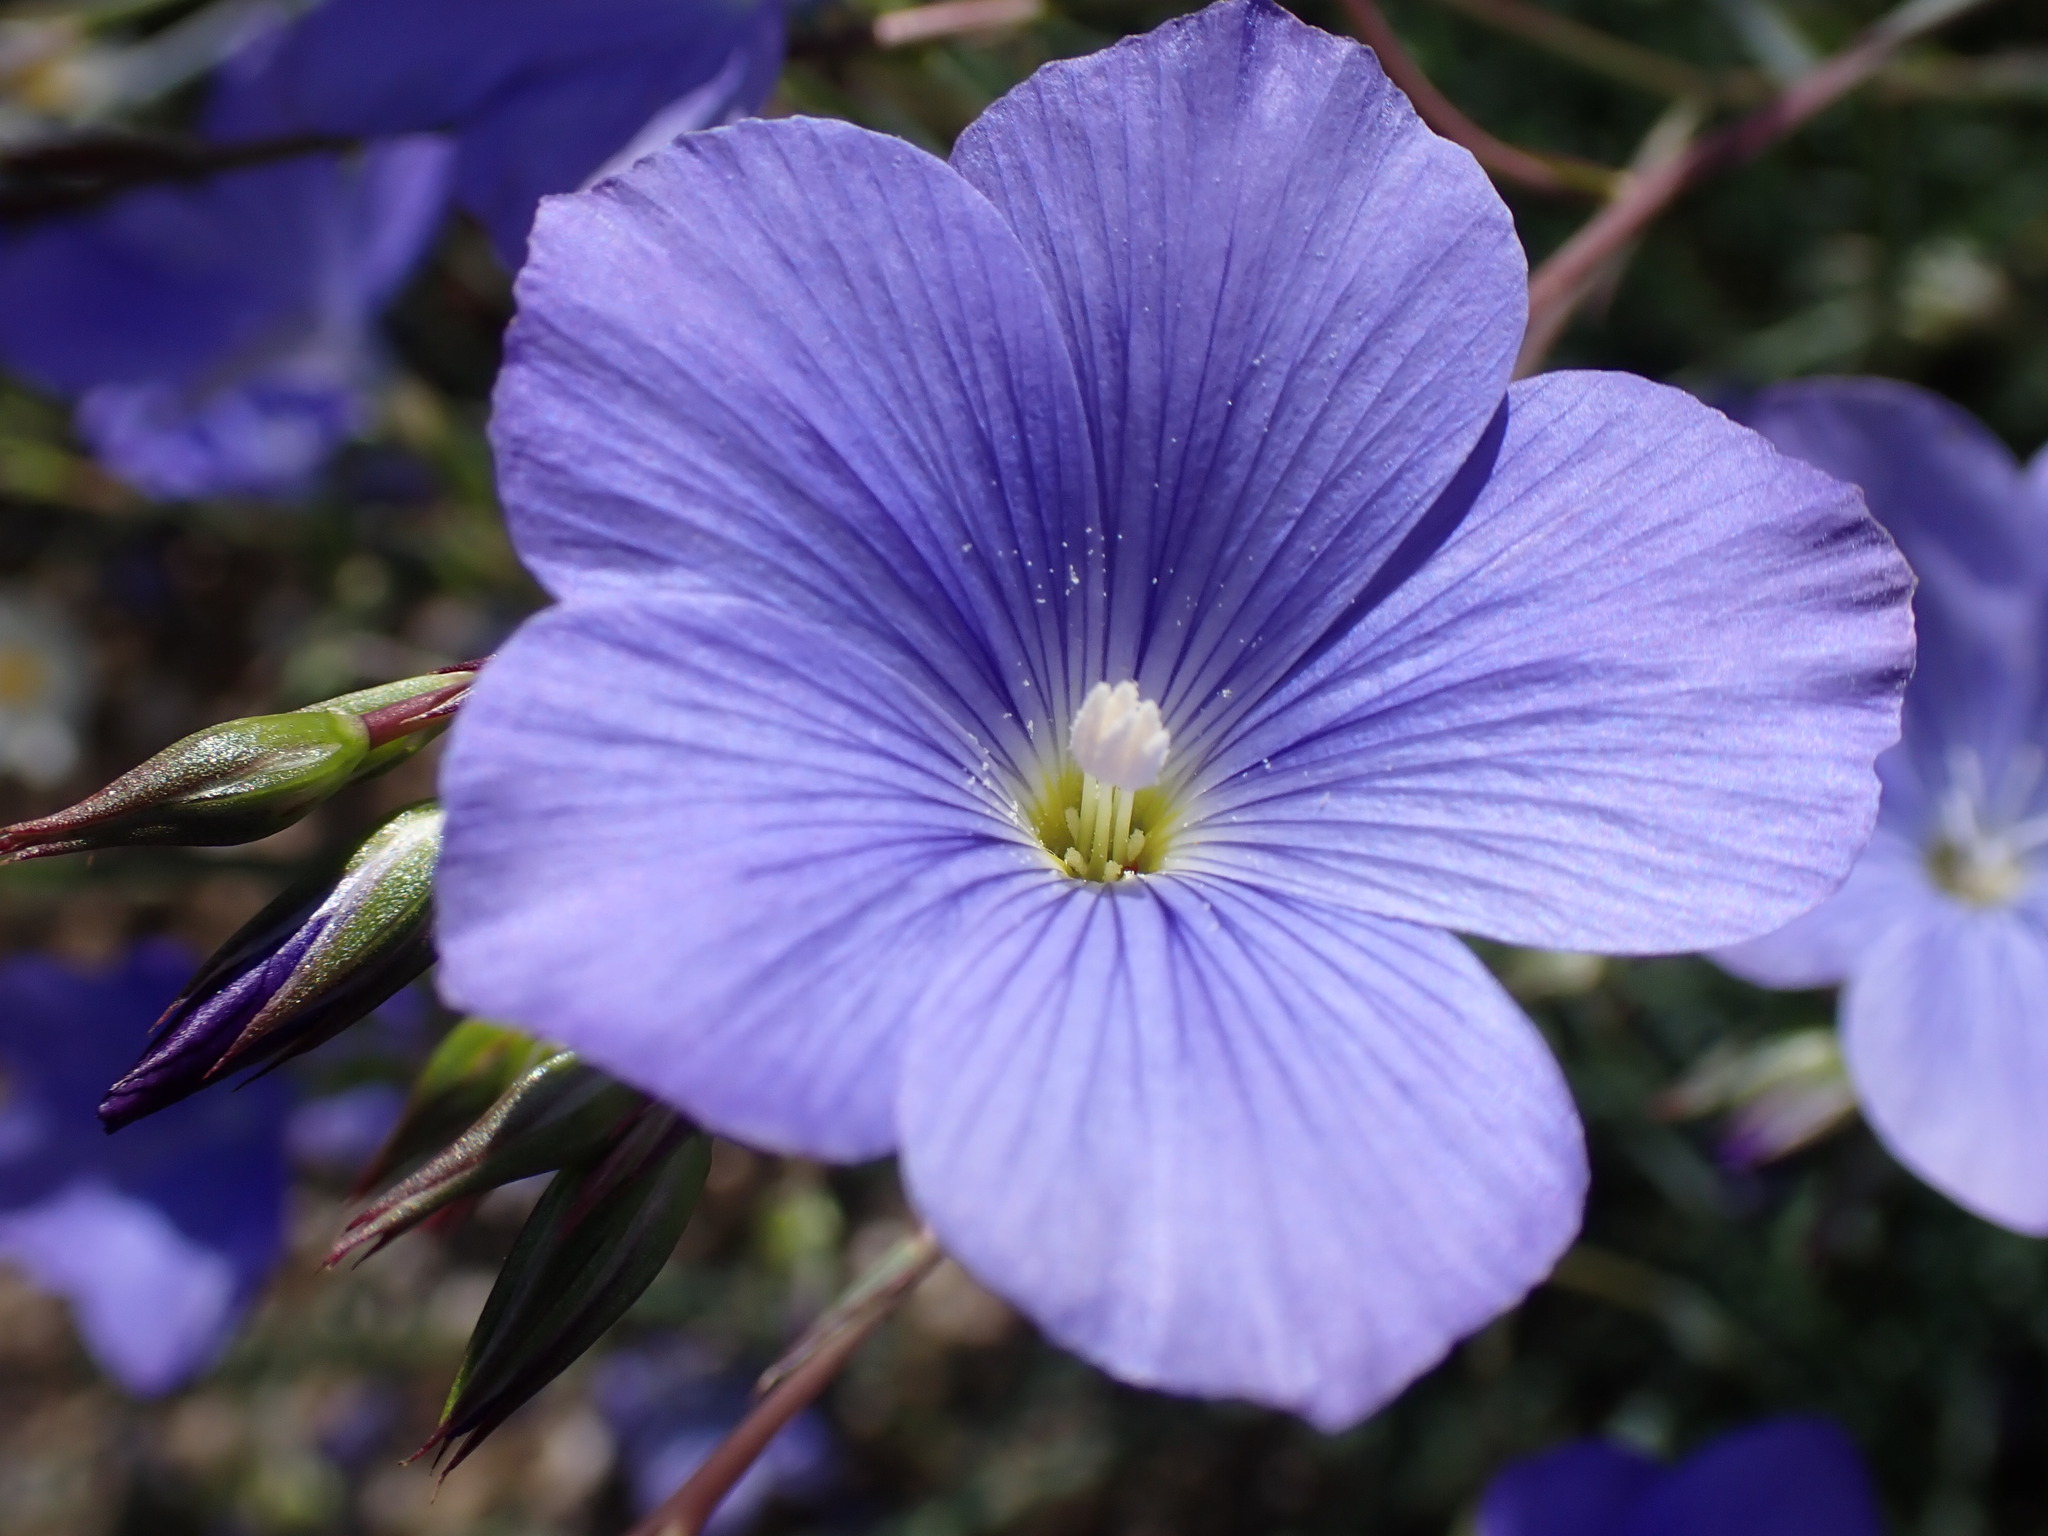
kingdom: Plantae
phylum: Tracheophyta
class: Magnoliopsida
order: Malpighiales
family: Linaceae
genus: Linum
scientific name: Linum narbonense
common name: Flax
